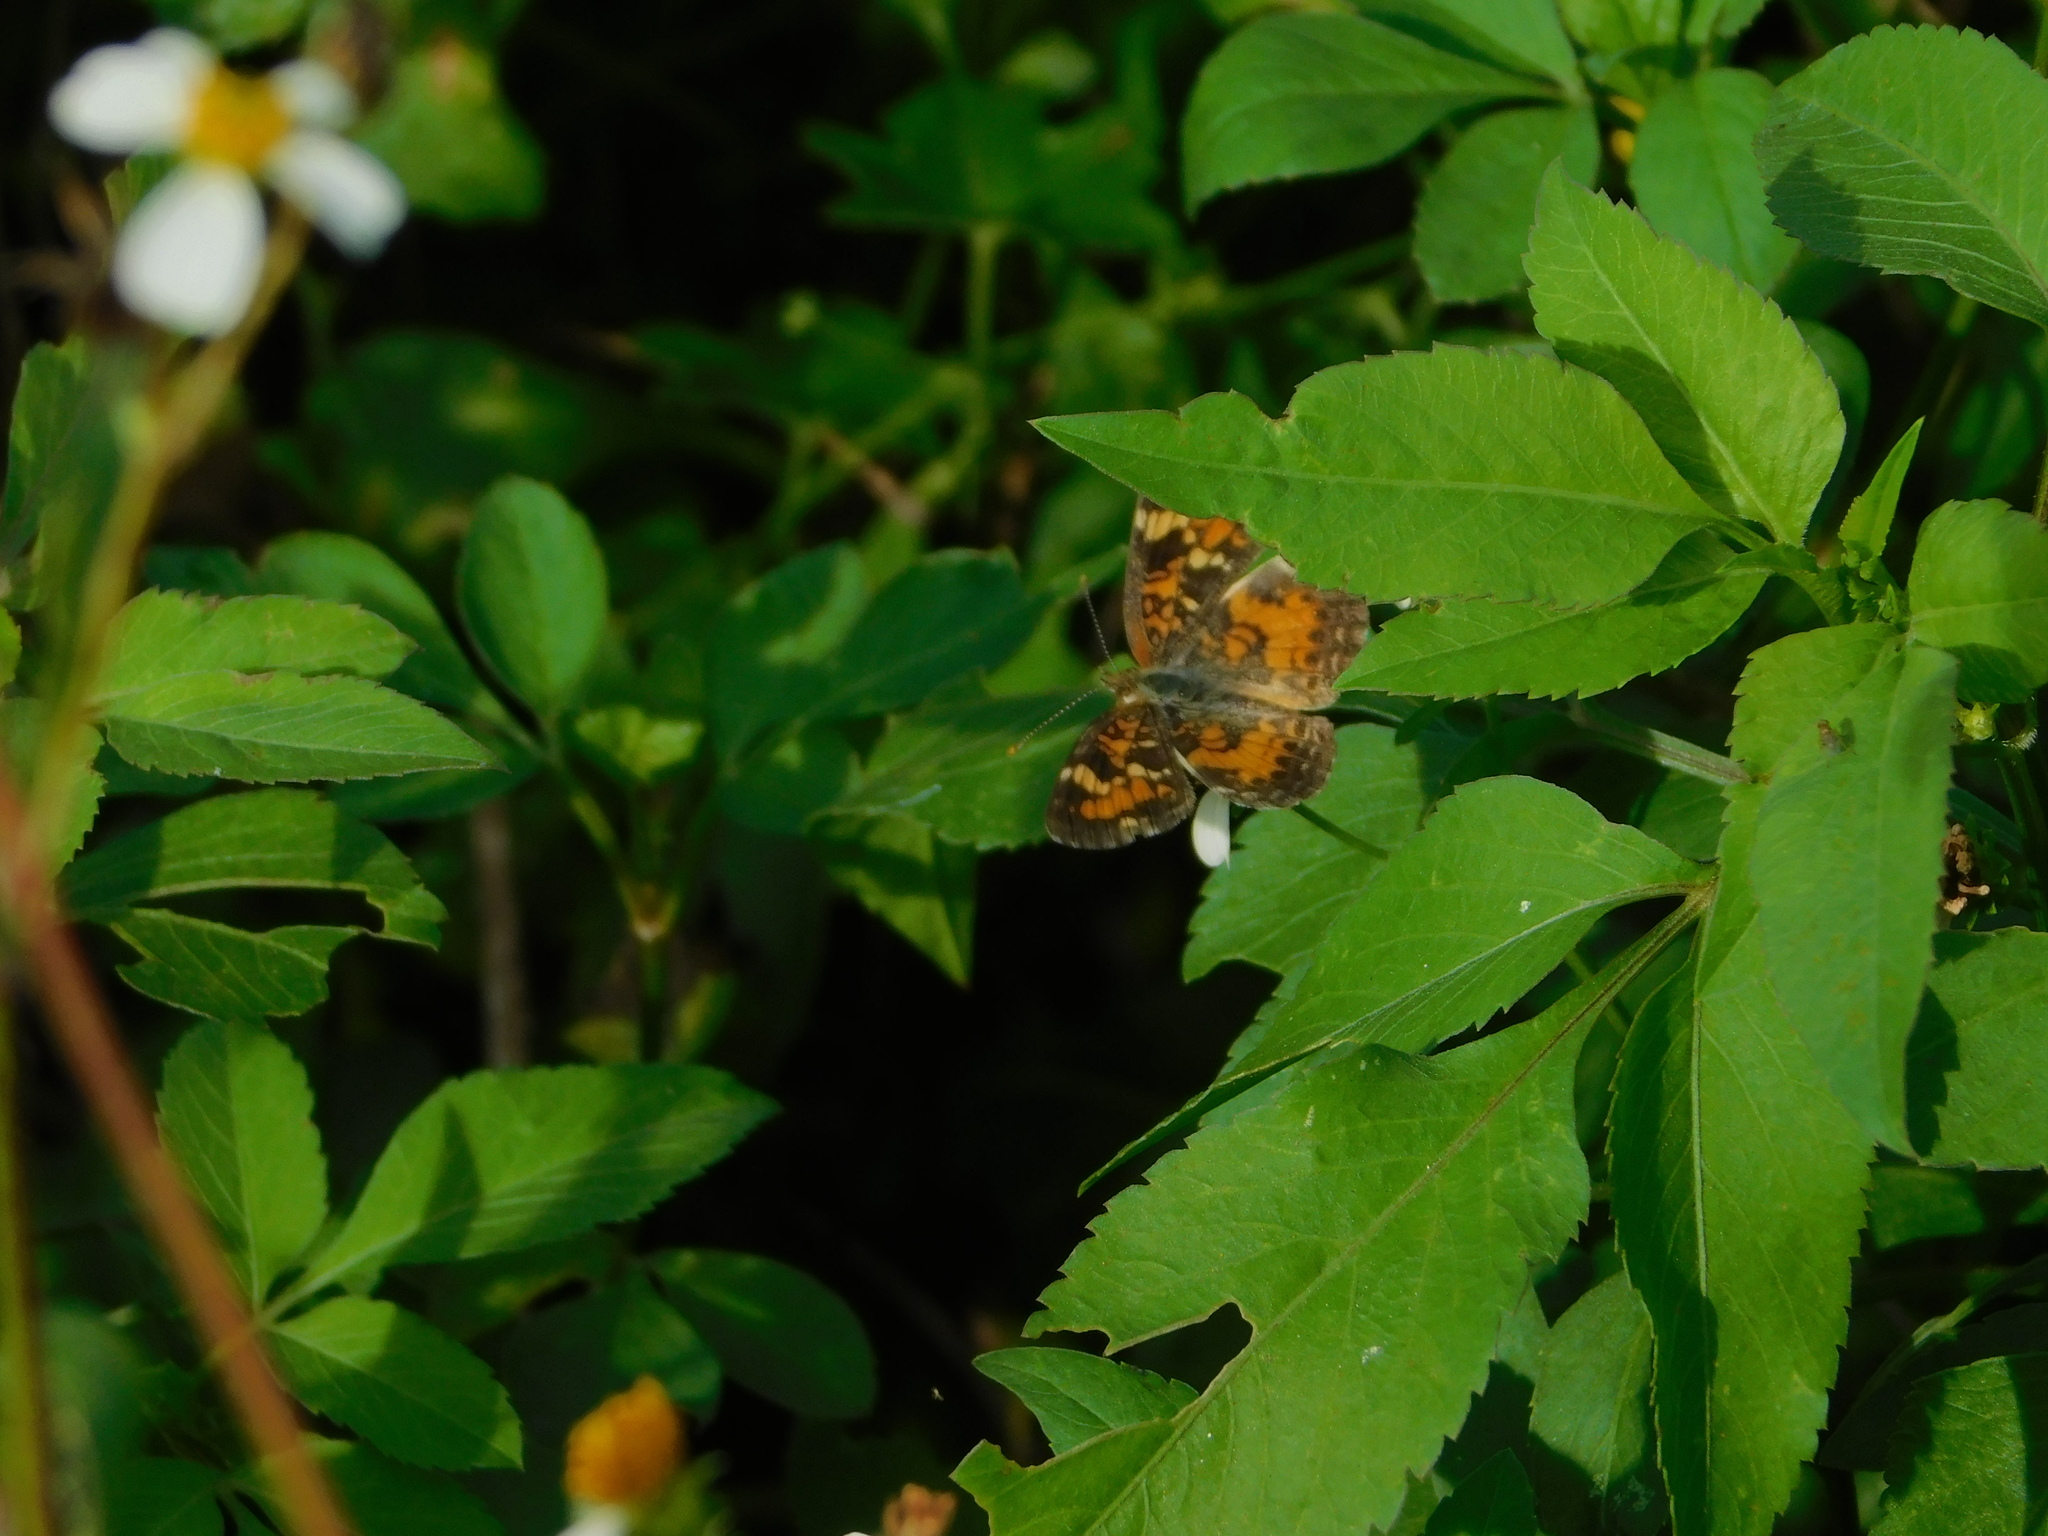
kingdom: Animalia
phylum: Arthropoda
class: Insecta
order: Lepidoptera
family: Nymphalidae
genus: Phyciodes
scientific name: Phyciodes phaon
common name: Phaon crescent
